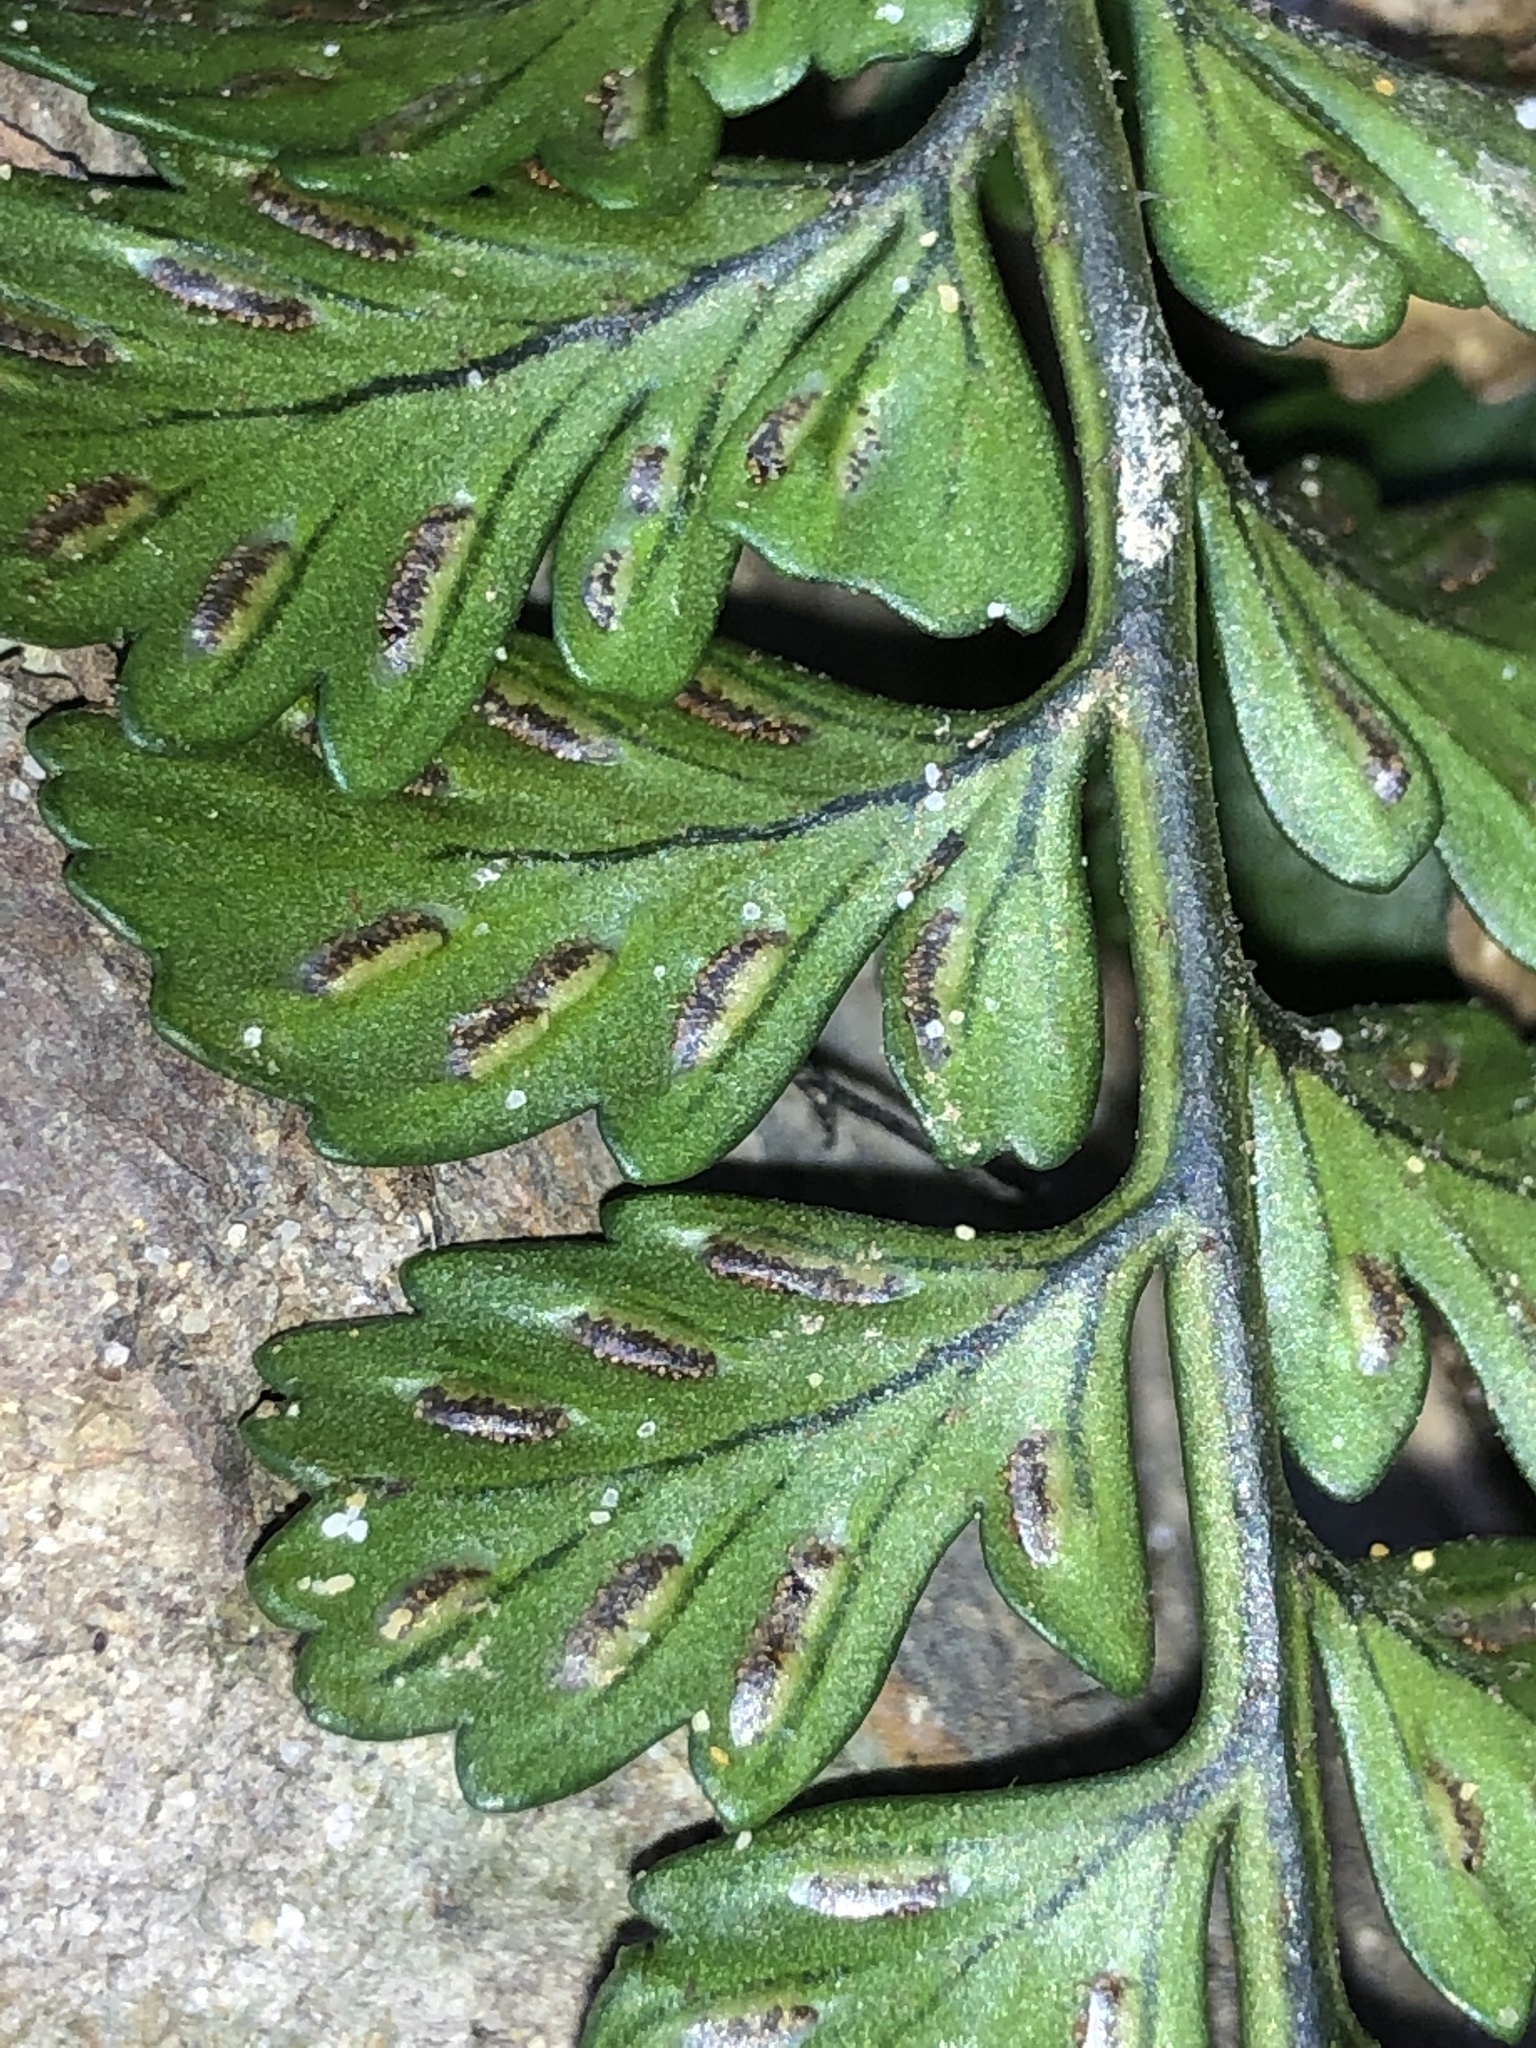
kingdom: Plantae
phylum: Tracheophyta
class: Polypodiopsida
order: Polypodiales
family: Aspleniaceae
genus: Asplenium
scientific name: Asplenium difforme
